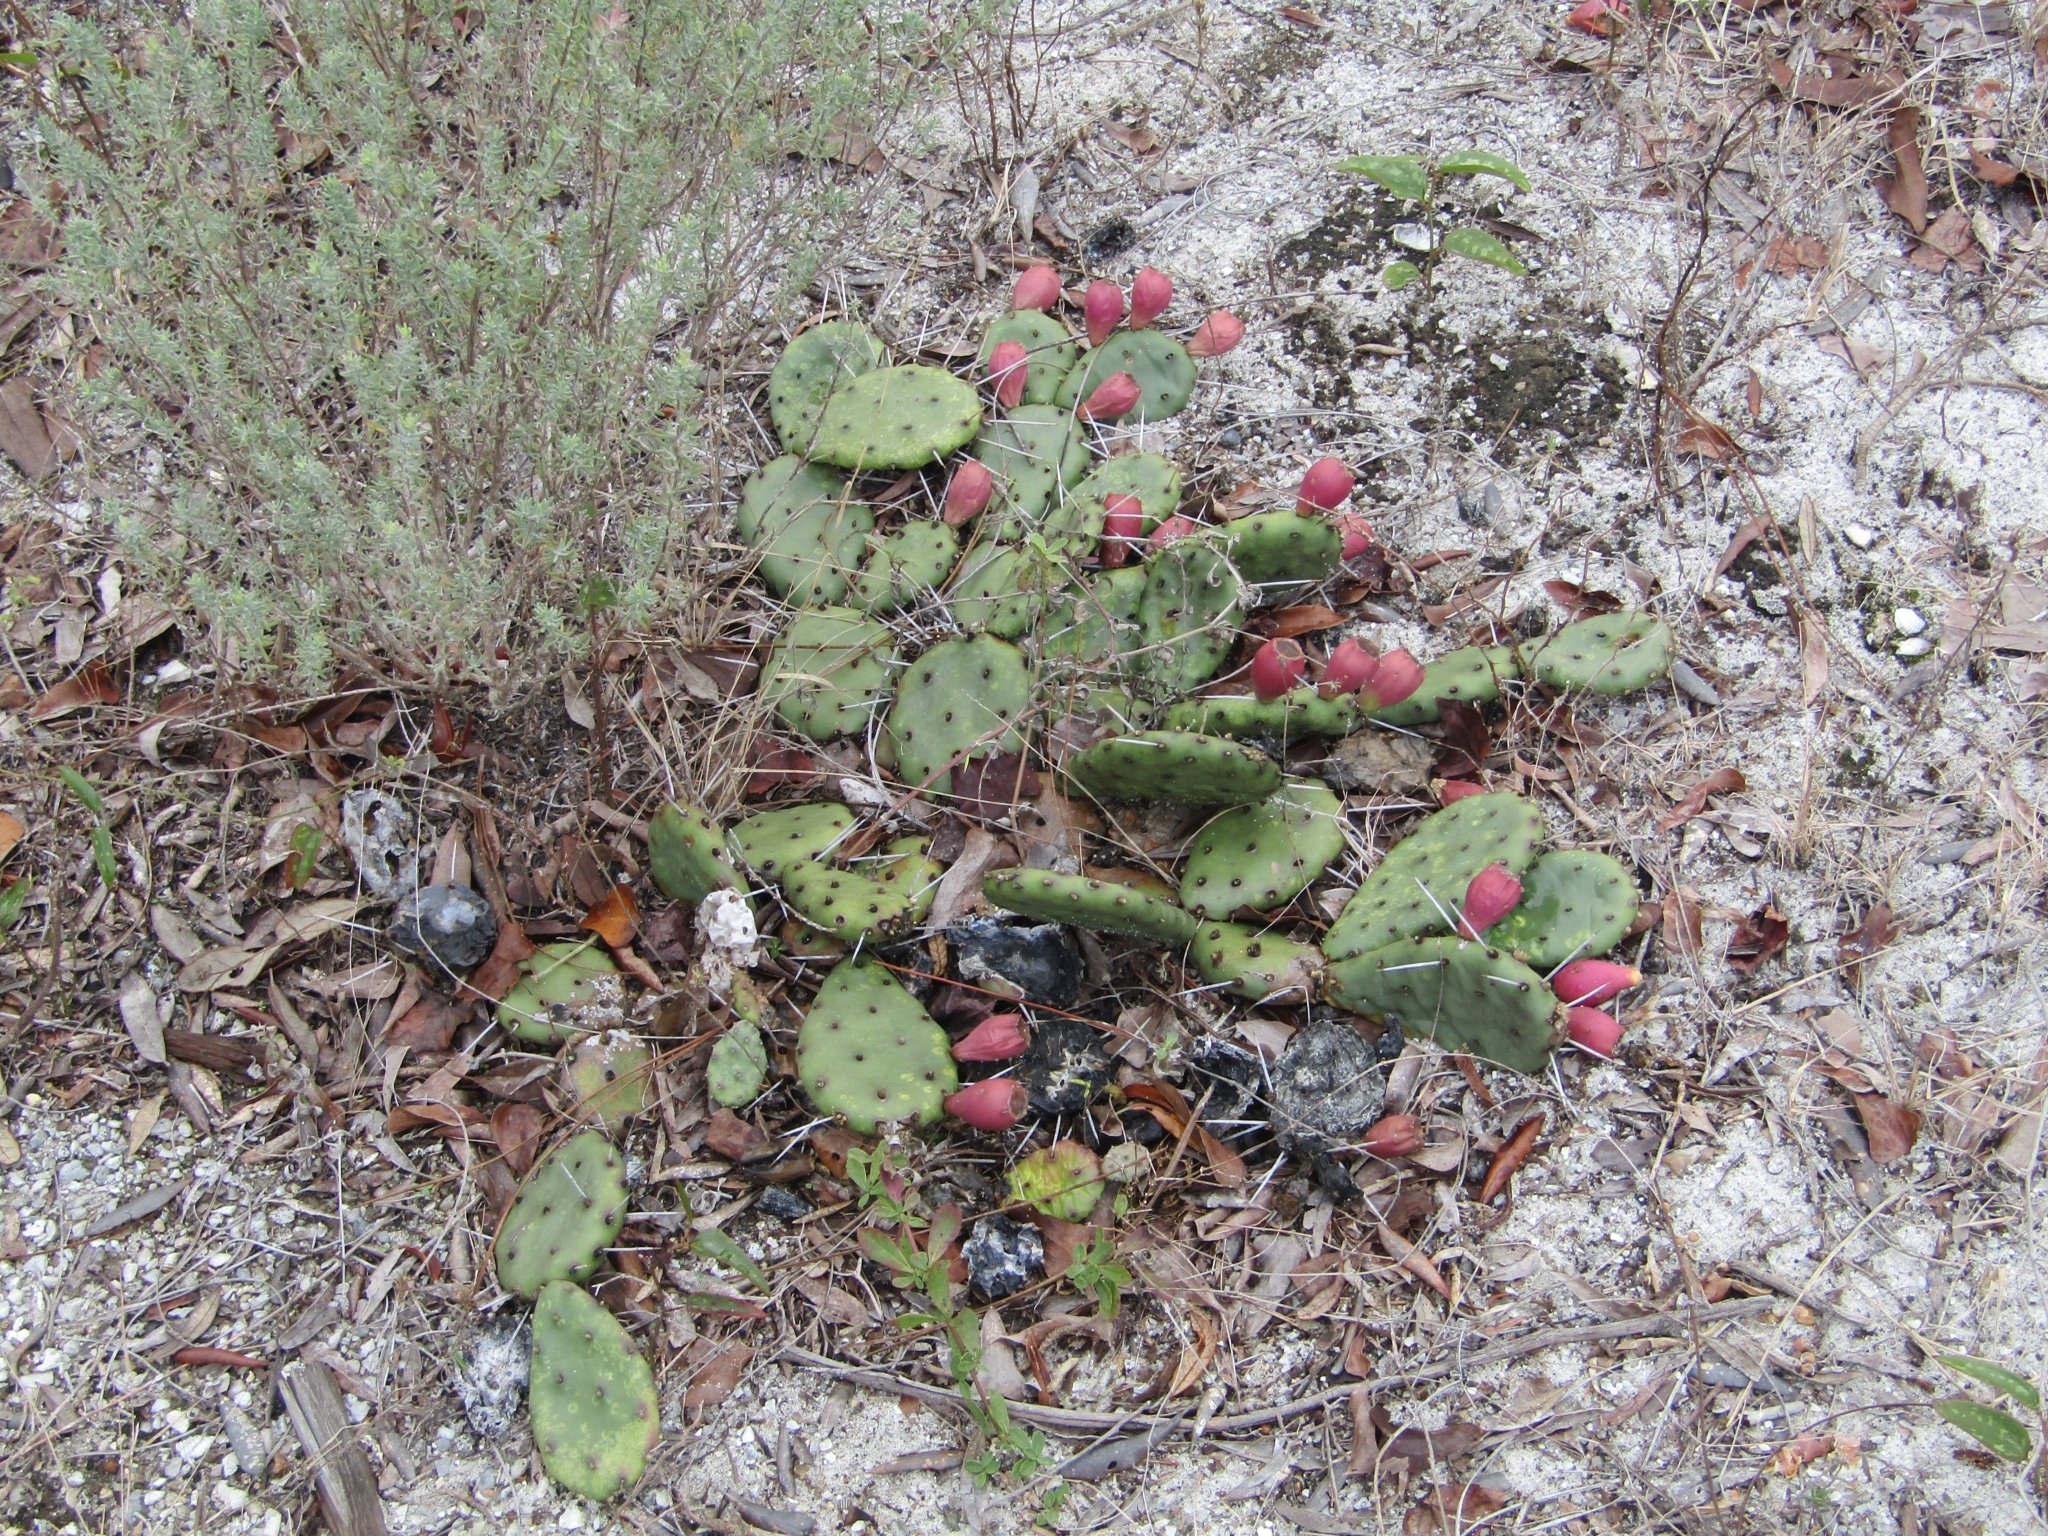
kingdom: Plantae
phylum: Tracheophyta
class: Magnoliopsida
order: Caryophyllales
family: Cactaceae
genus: Opuntia
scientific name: Opuntia mesacantha
